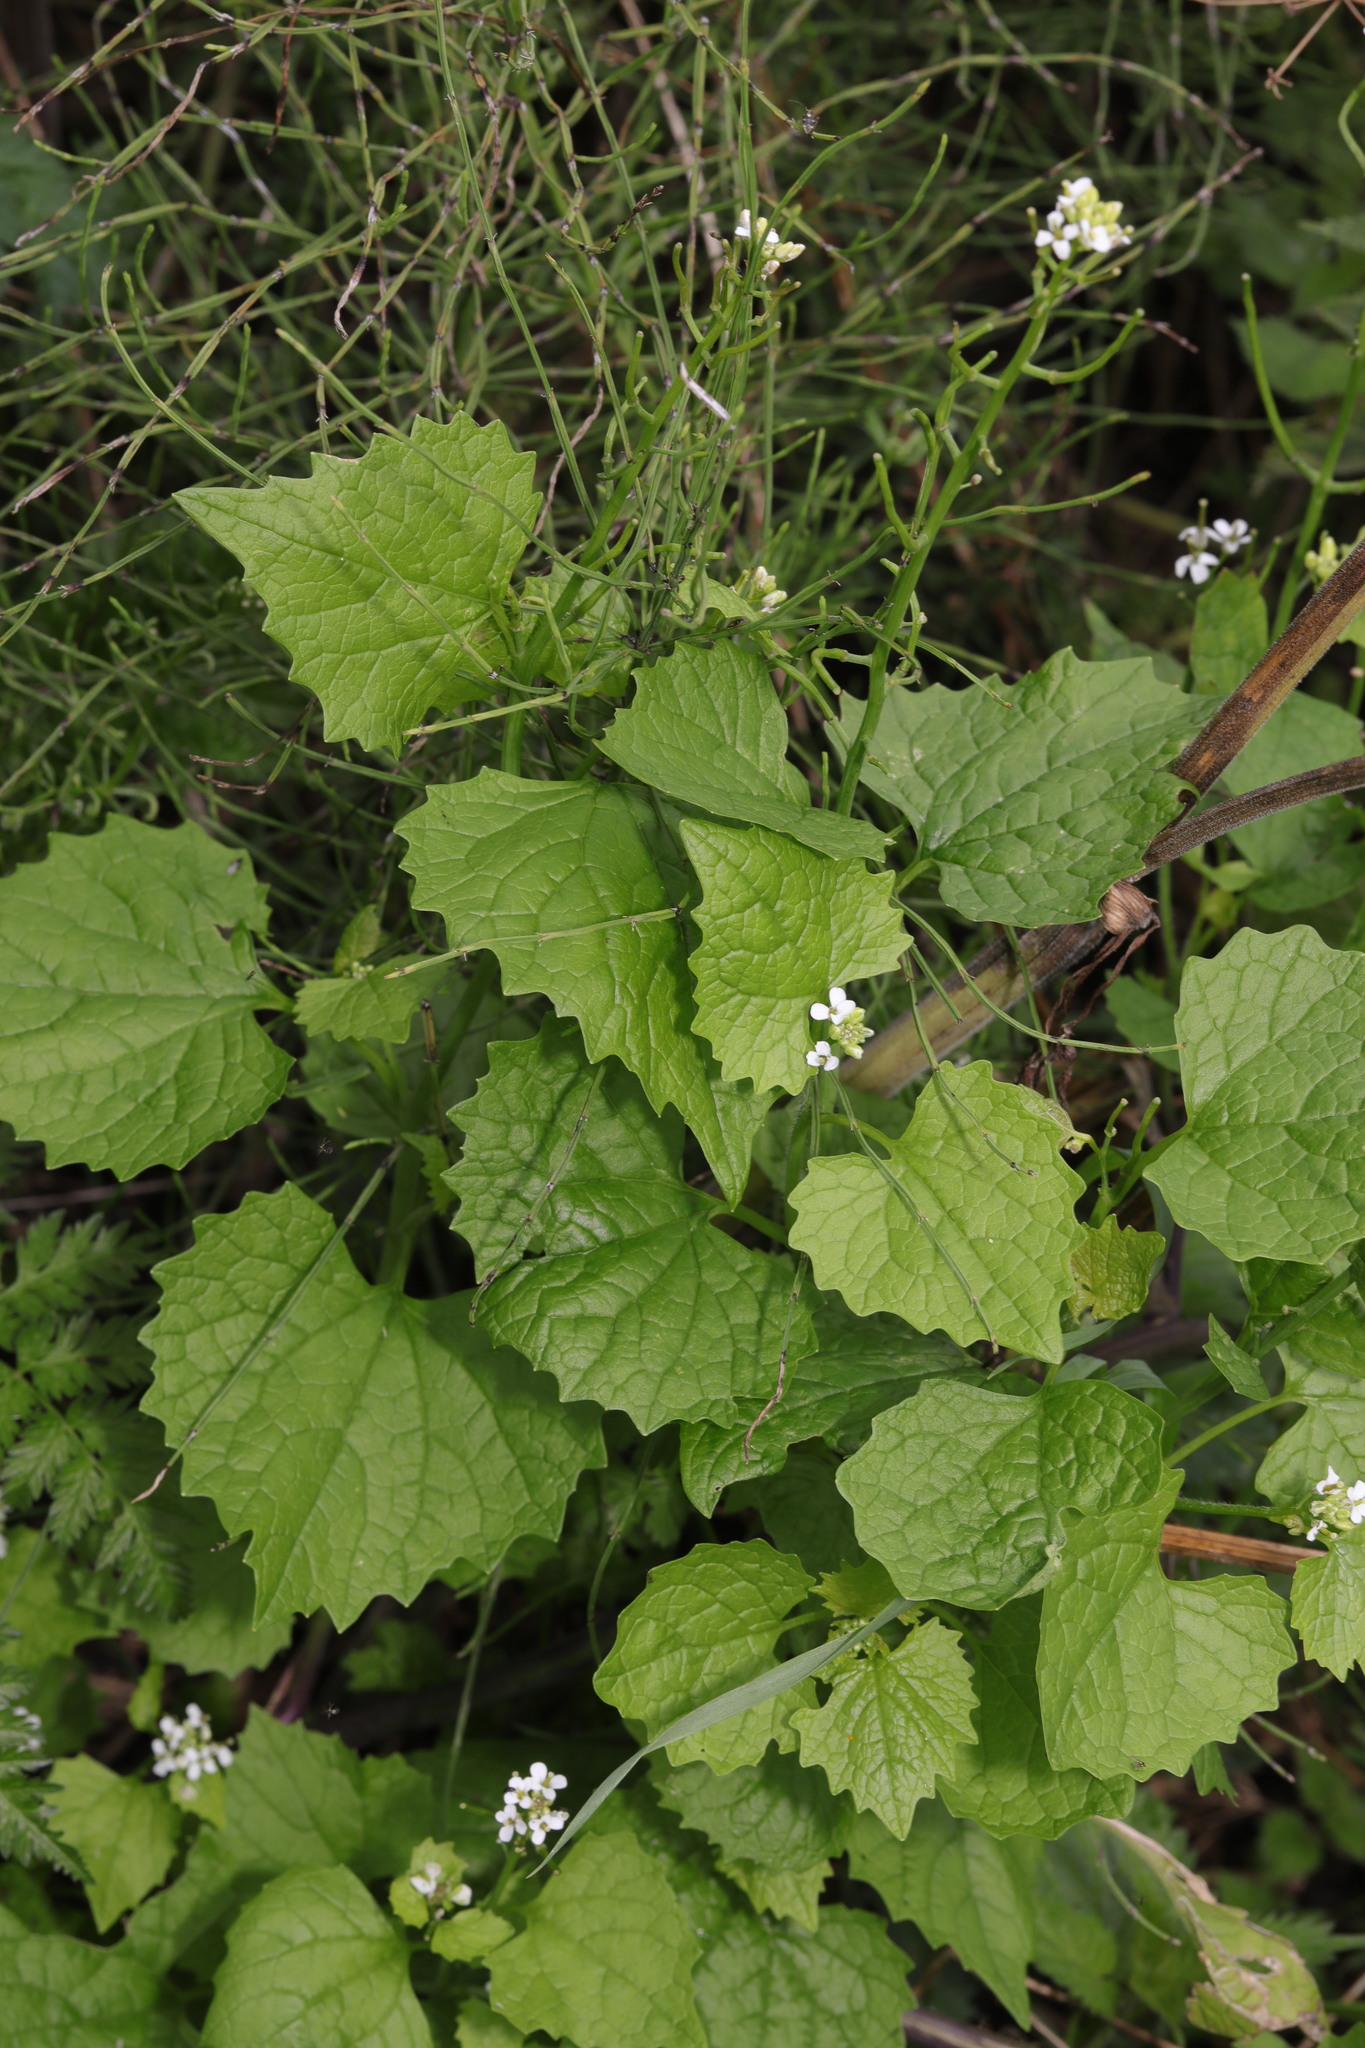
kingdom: Plantae
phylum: Tracheophyta
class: Magnoliopsida
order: Brassicales
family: Brassicaceae
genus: Alliaria
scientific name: Alliaria petiolata
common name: Garlic mustard
